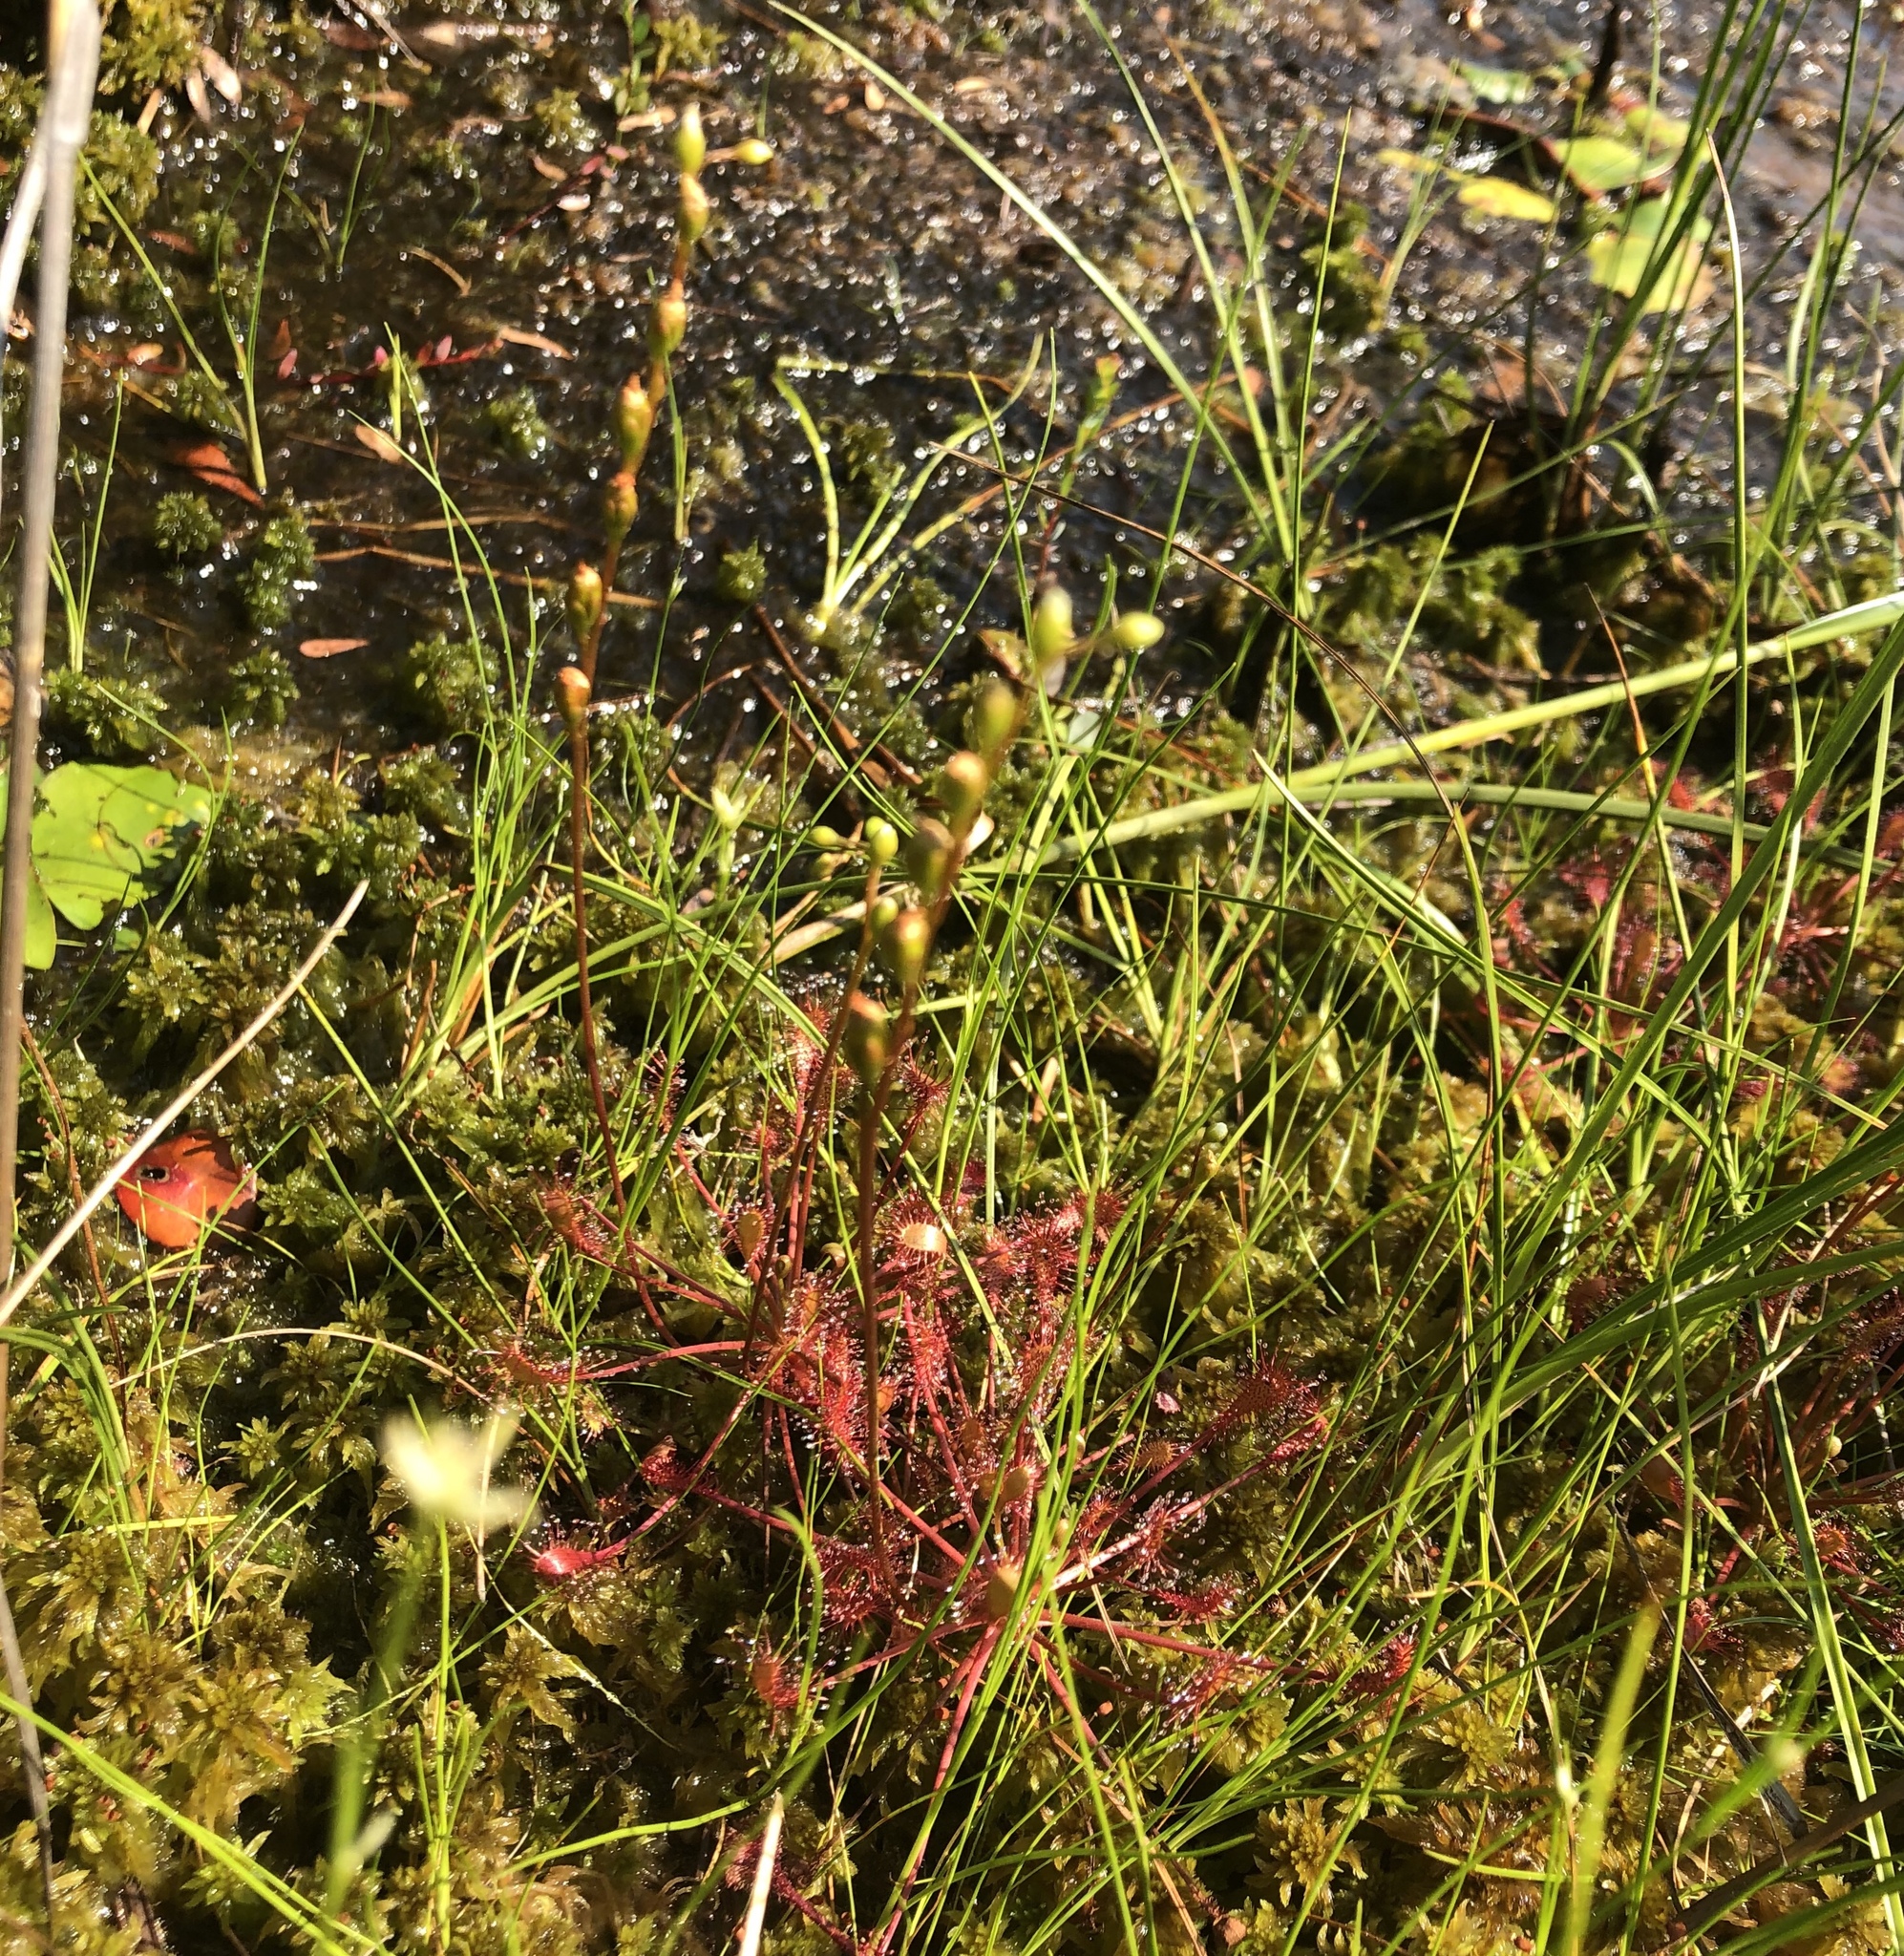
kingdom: Plantae
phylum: Tracheophyta
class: Magnoliopsida
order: Caryophyllales
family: Droseraceae
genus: Drosera
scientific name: Drosera intermedia
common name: Oblong-leaved sundew
